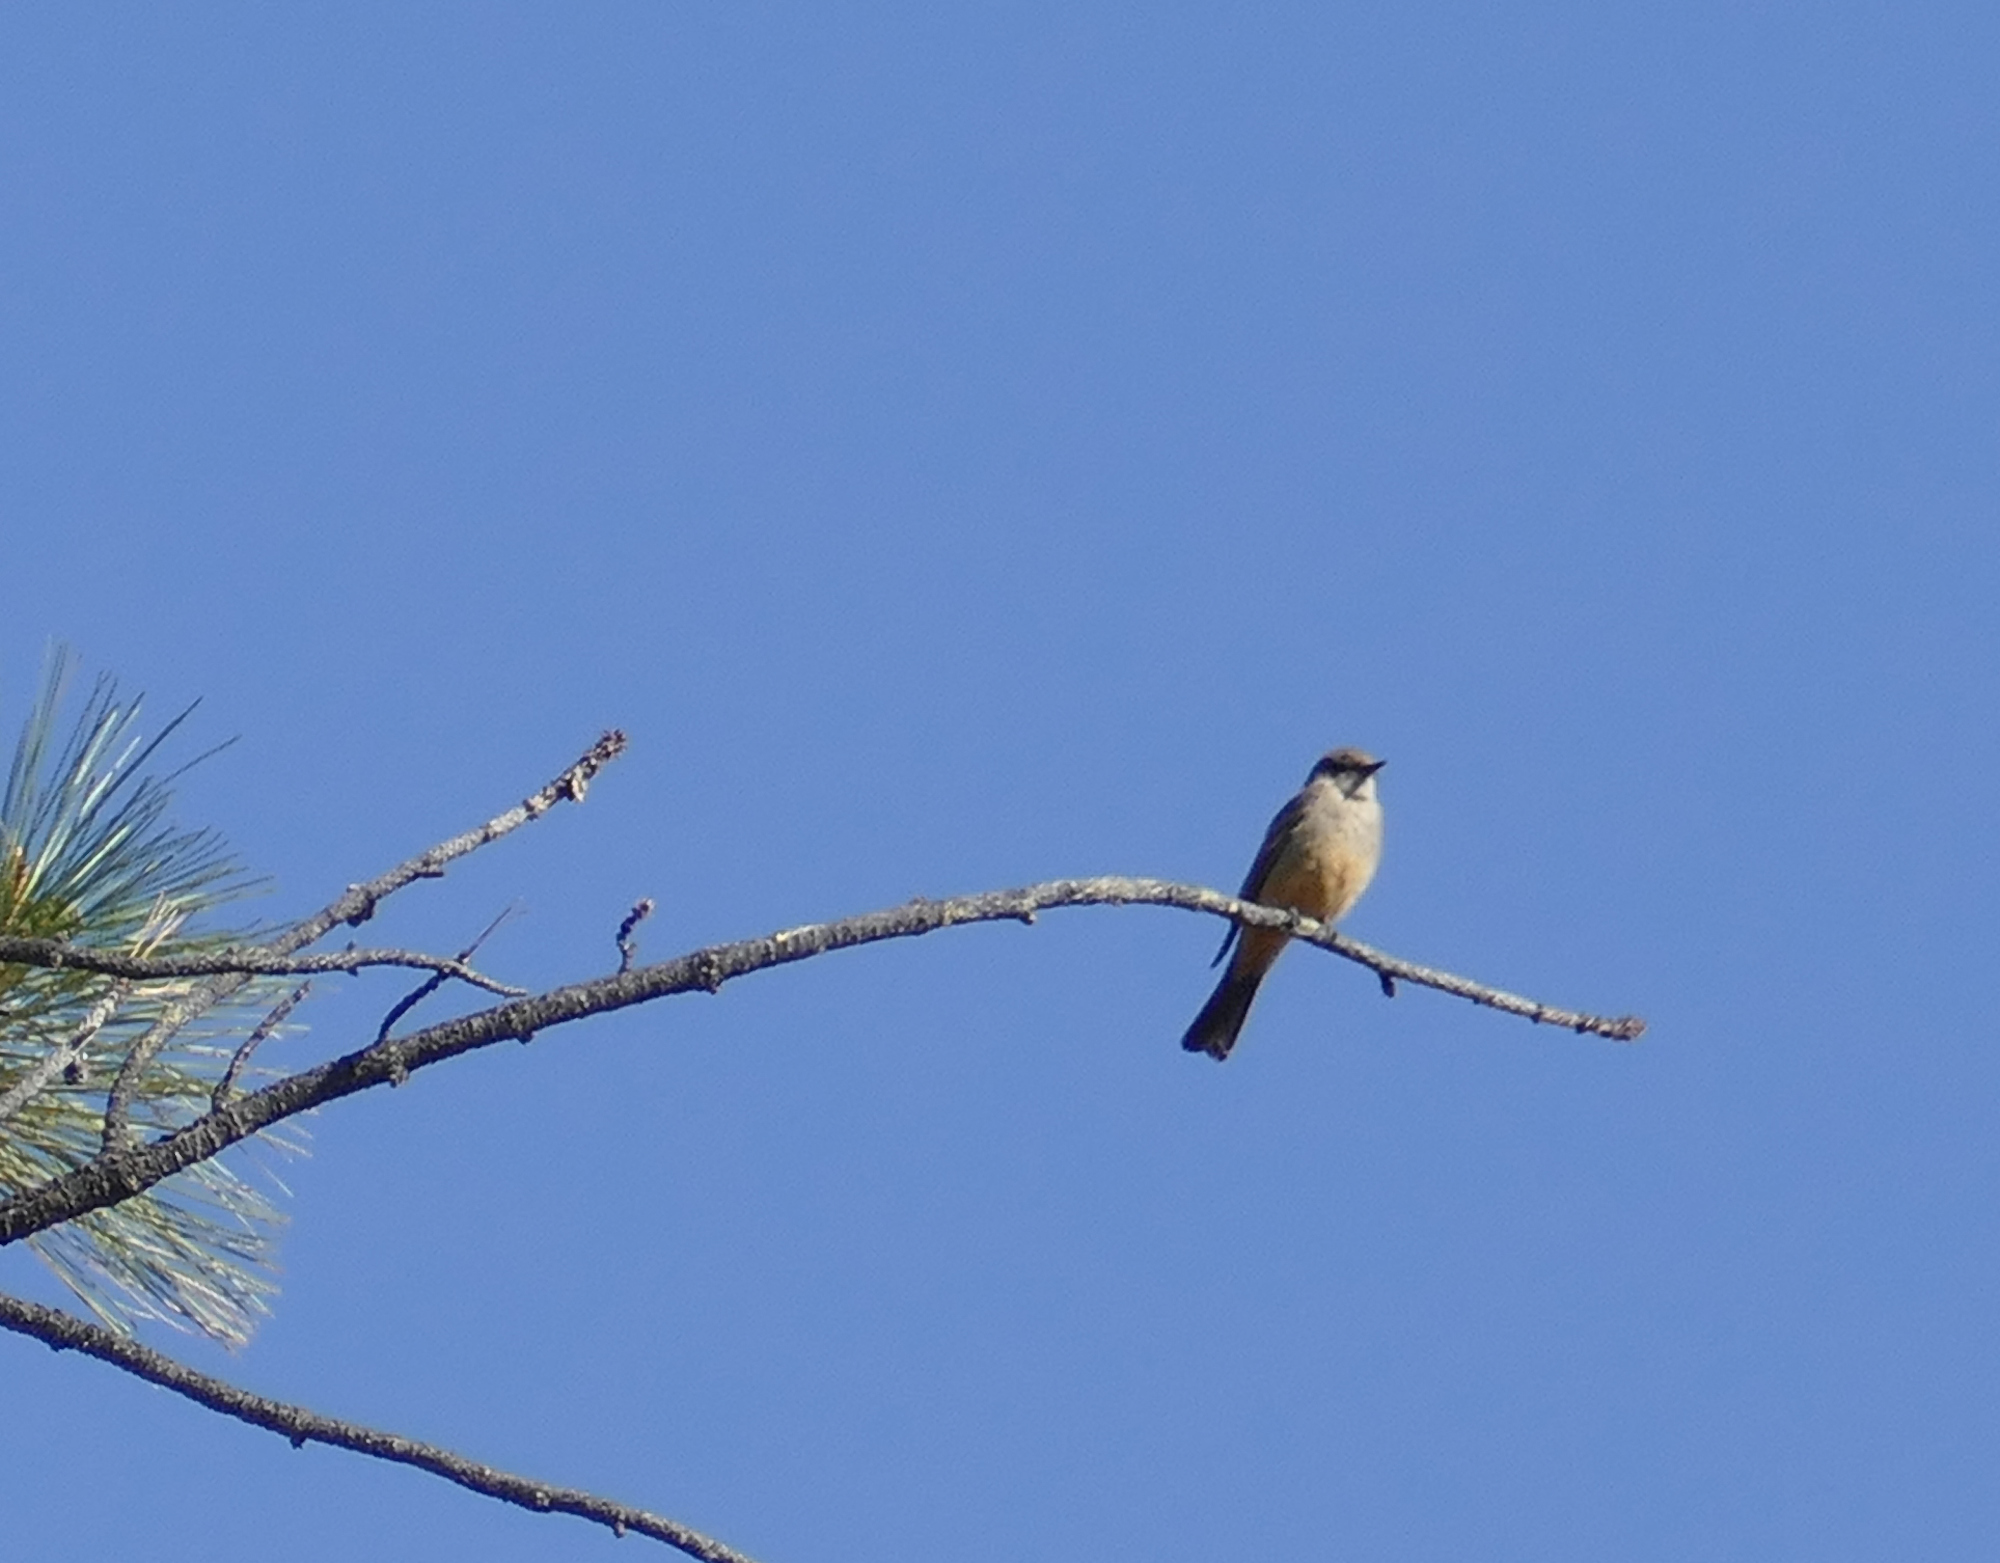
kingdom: Animalia
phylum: Chordata
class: Aves
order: Passeriformes
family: Tyrannidae
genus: Sayornis
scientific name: Sayornis saya
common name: Say's phoebe
